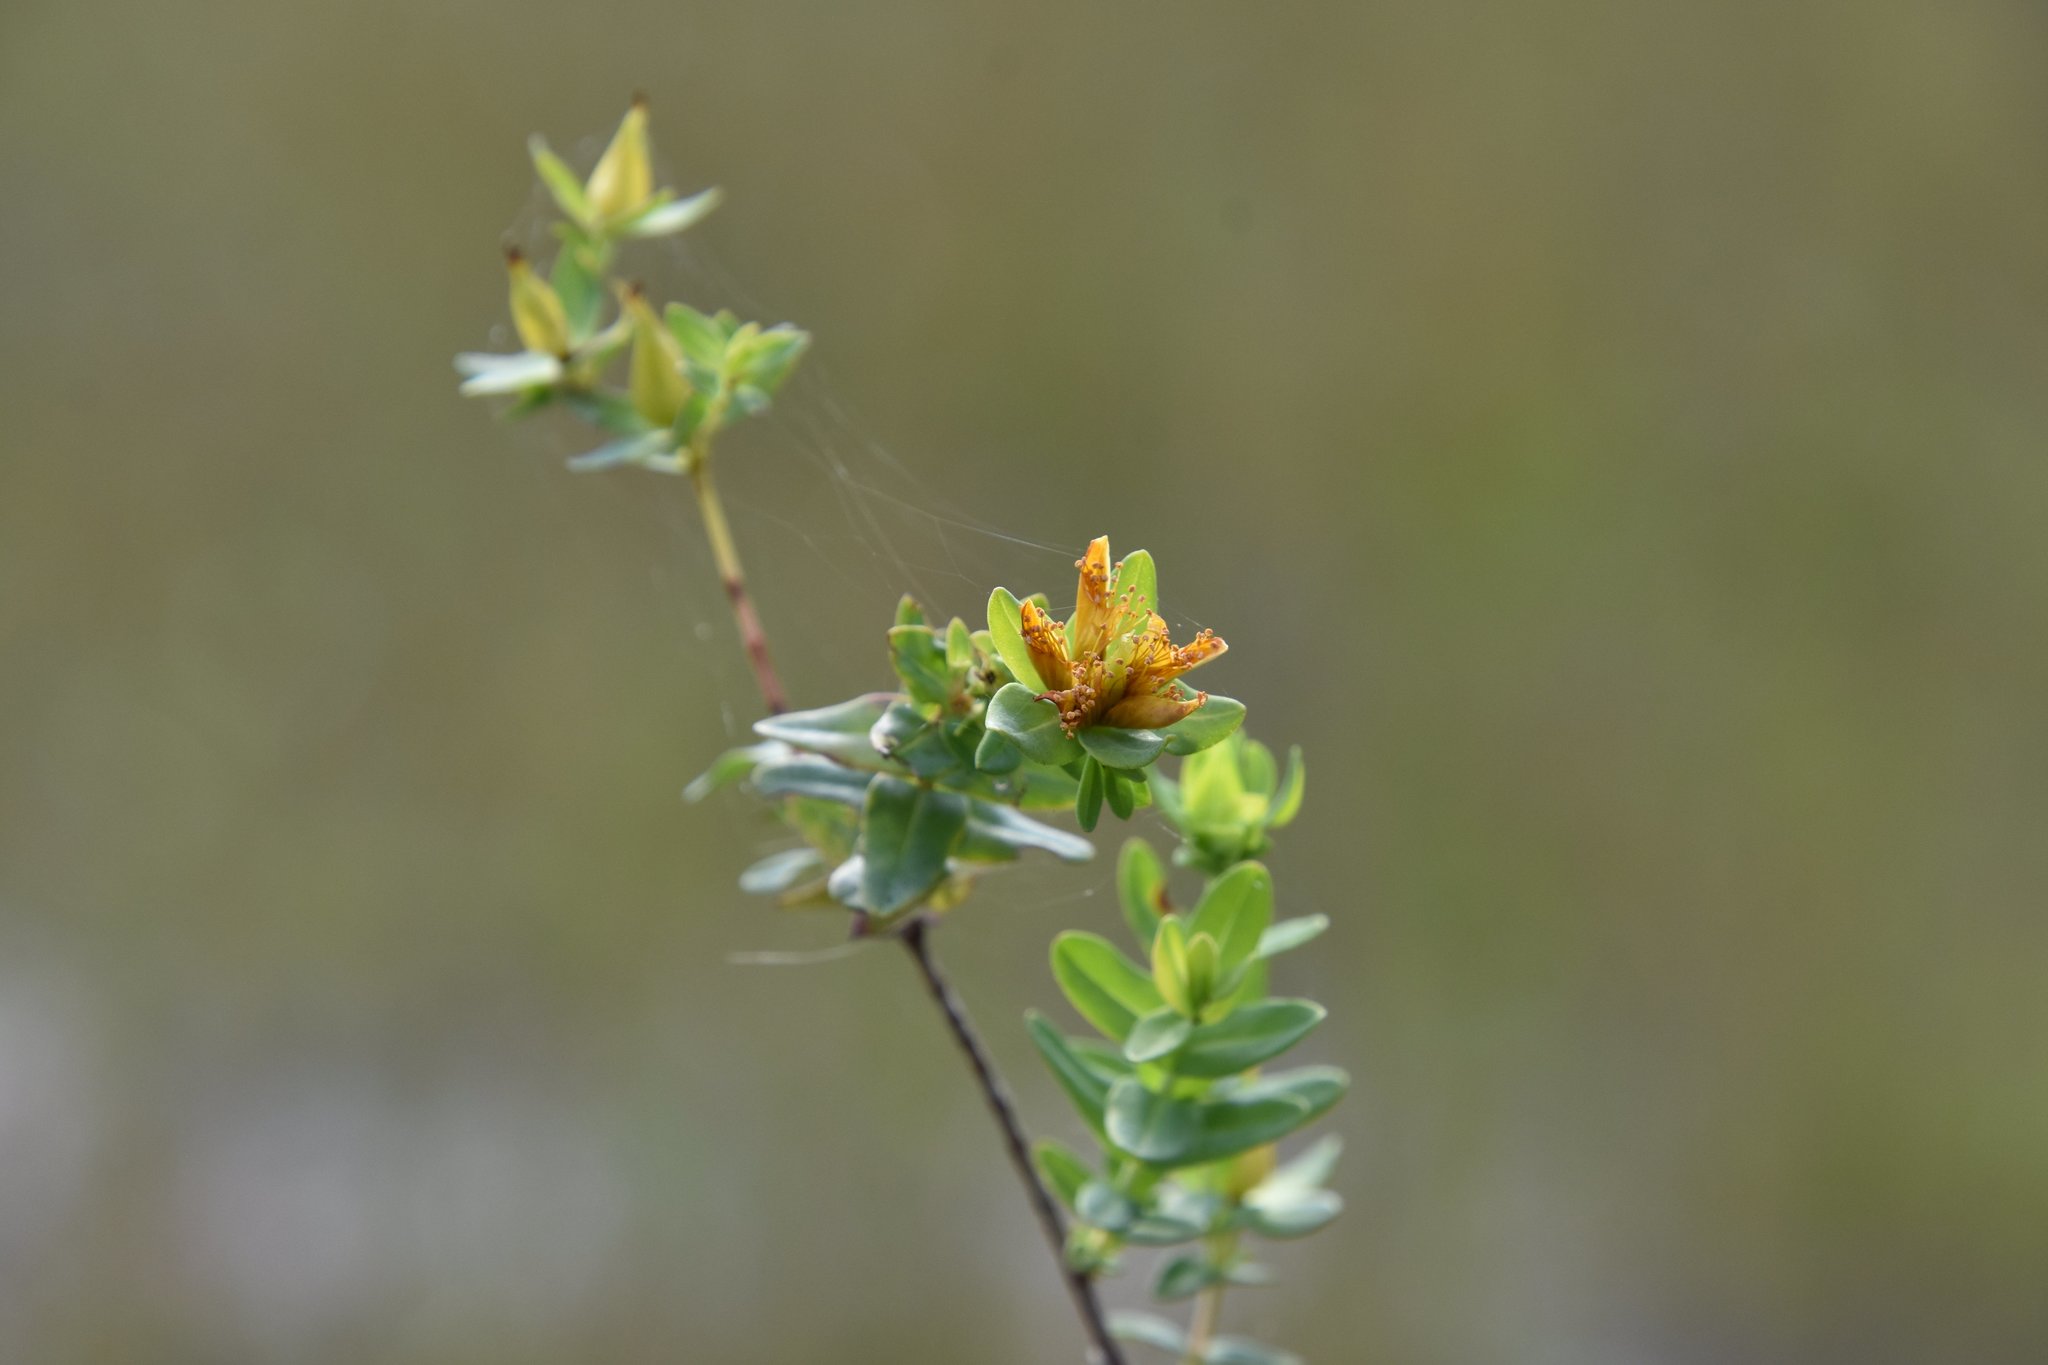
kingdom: Plantae
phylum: Tracheophyta
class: Magnoliopsida
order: Malpighiales
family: Hypericaceae
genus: Hypericum
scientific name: Hypericum myrtifolium
